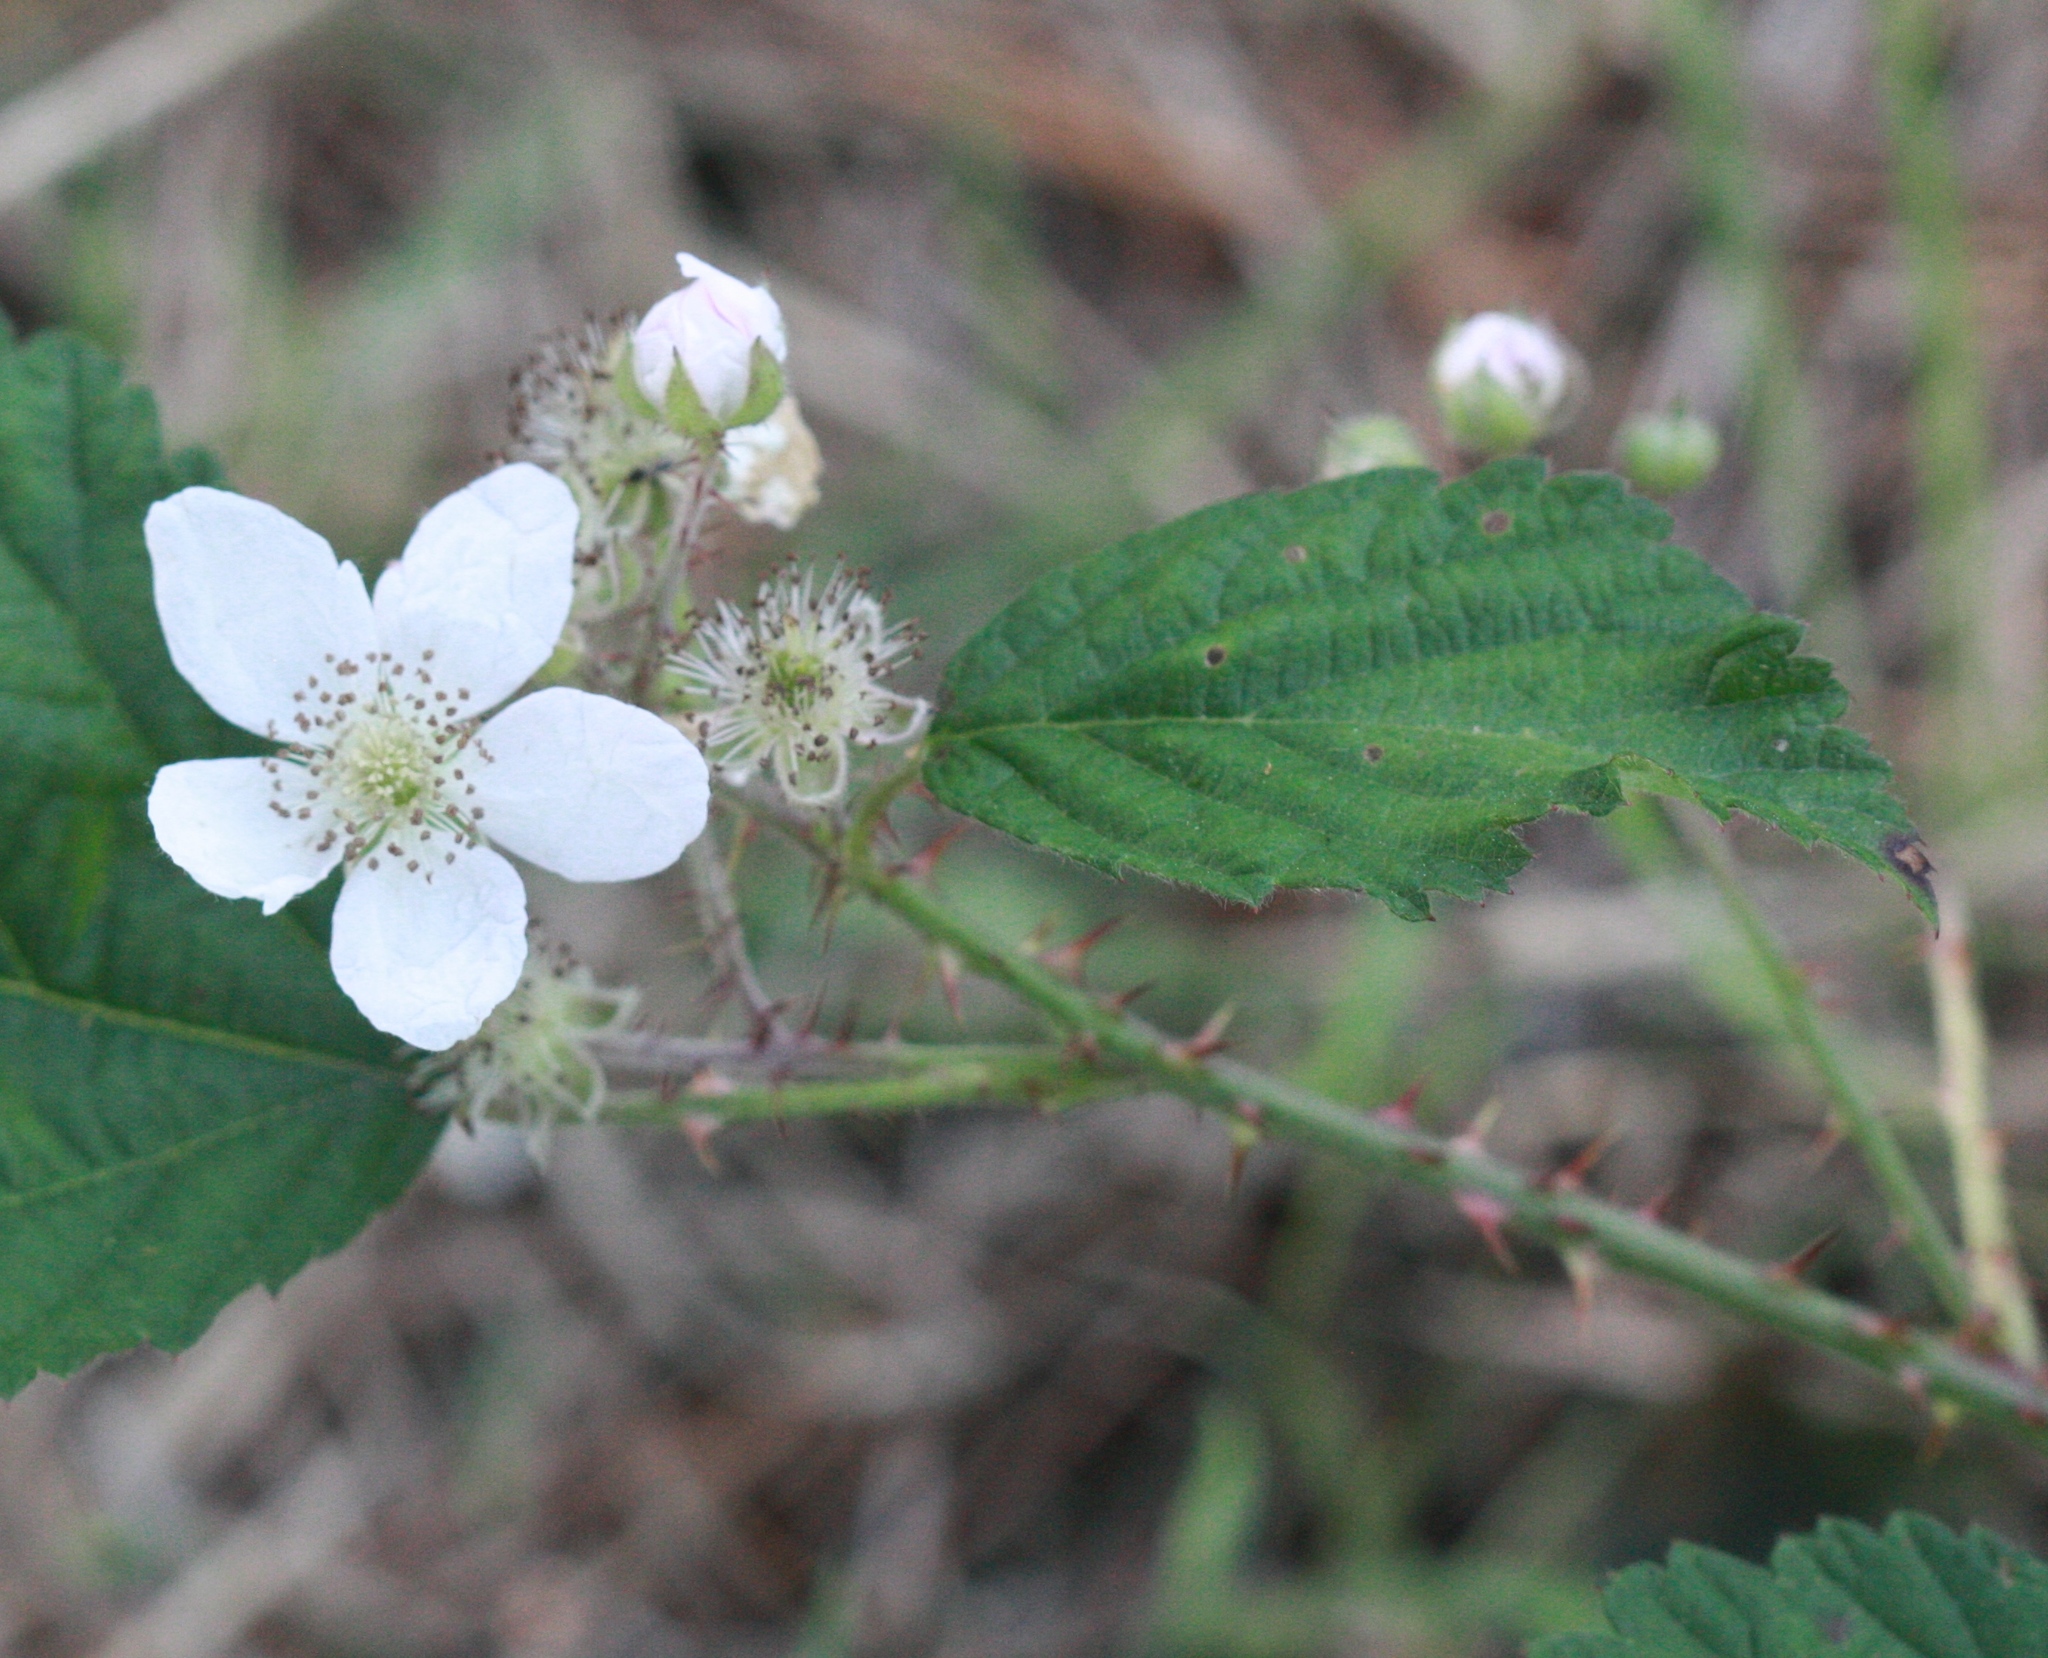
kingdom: Plantae
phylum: Tracheophyta
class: Magnoliopsida
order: Rosales
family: Rosaceae
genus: Rubus
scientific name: Rubus armeniacus
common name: Himalayan blackberry
